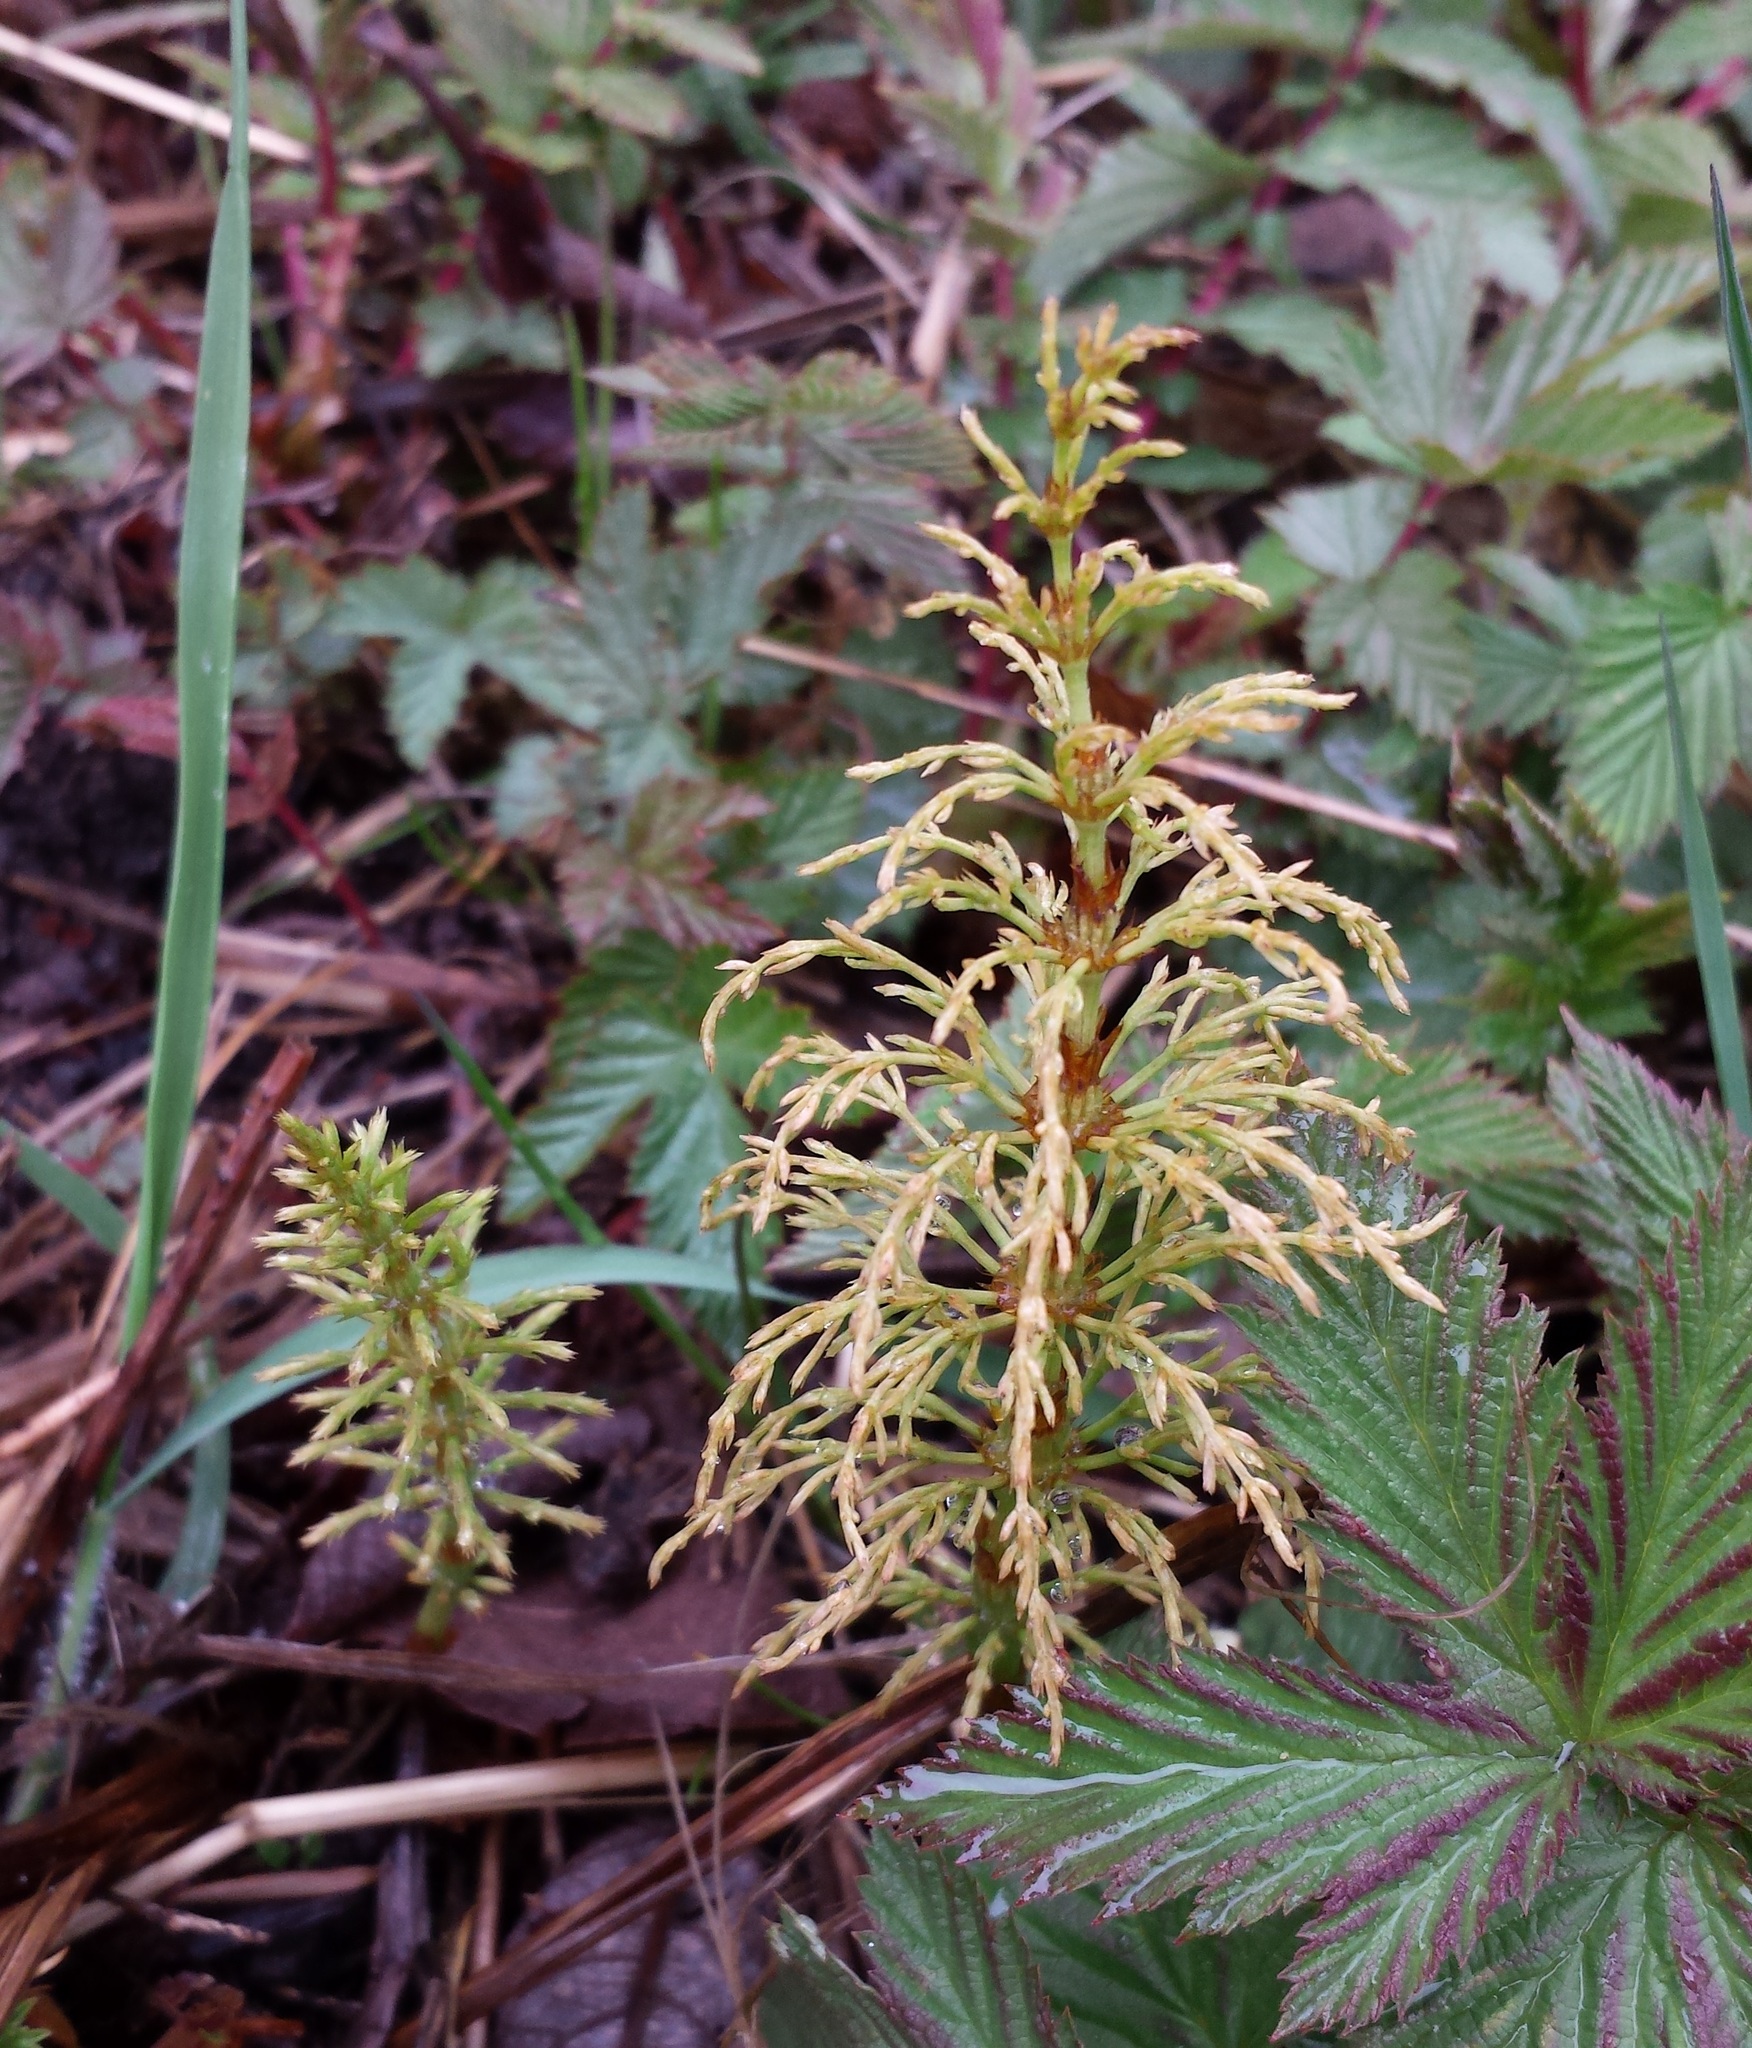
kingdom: Plantae
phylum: Tracheophyta
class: Polypodiopsida
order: Equisetales
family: Equisetaceae
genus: Equisetum
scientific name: Equisetum sylvaticum
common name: Wood horsetail
